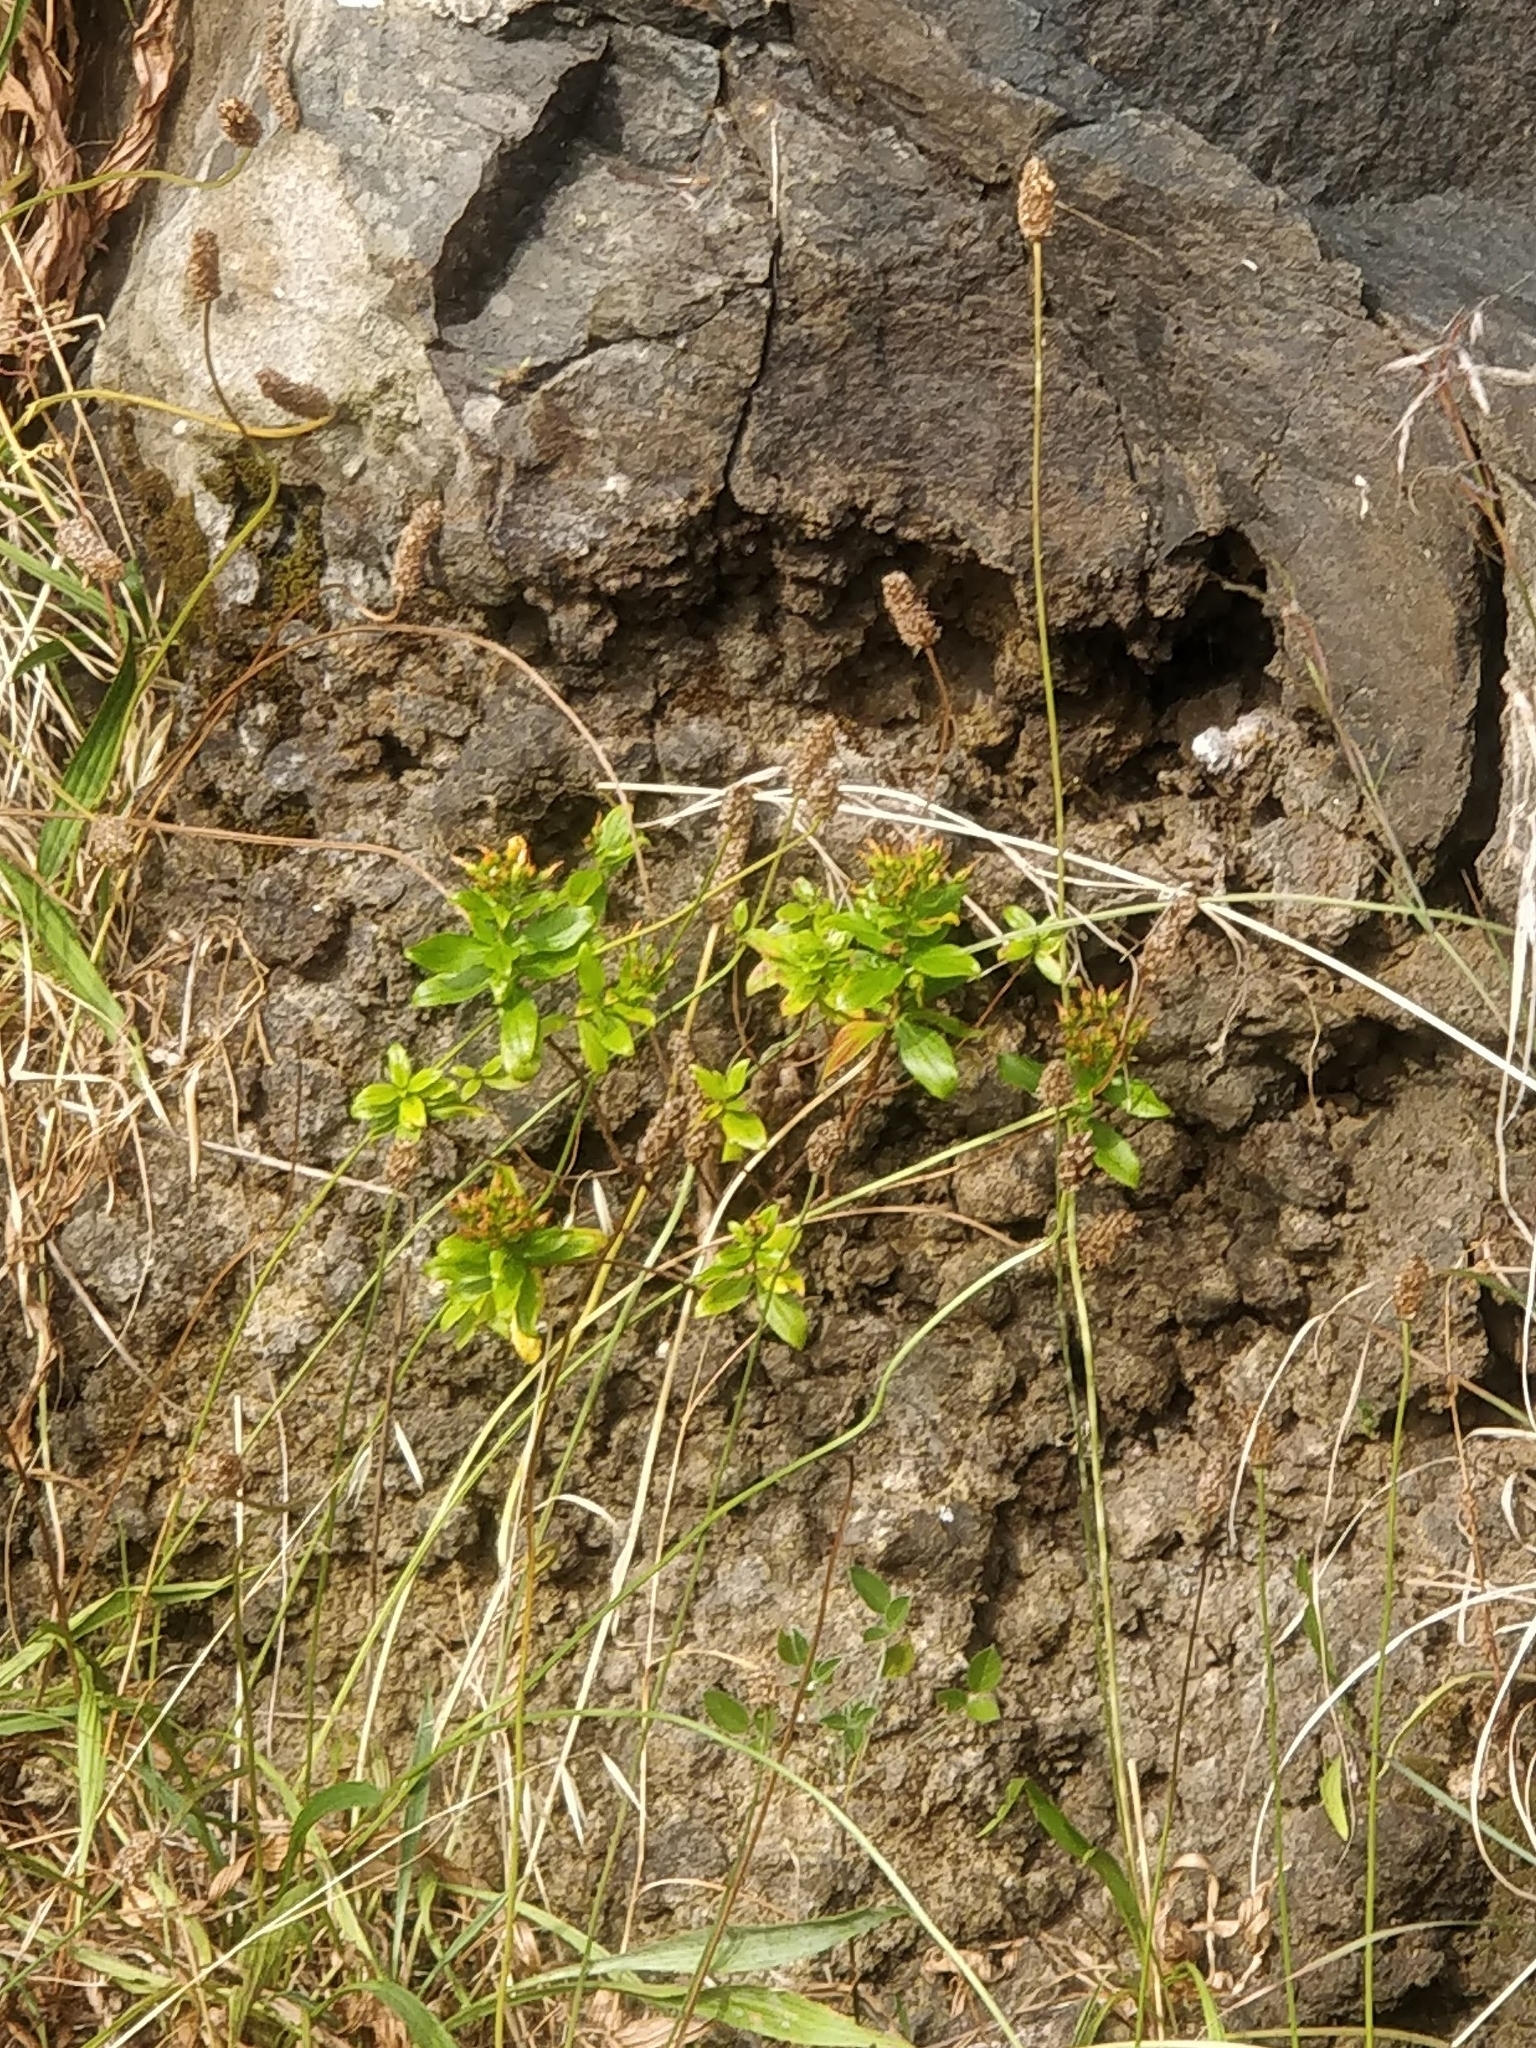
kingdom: Plantae
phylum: Tracheophyta
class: Magnoliopsida
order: Malpighiales
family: Hypericaceae
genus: Hypericum
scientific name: Hypericum glandulosum
